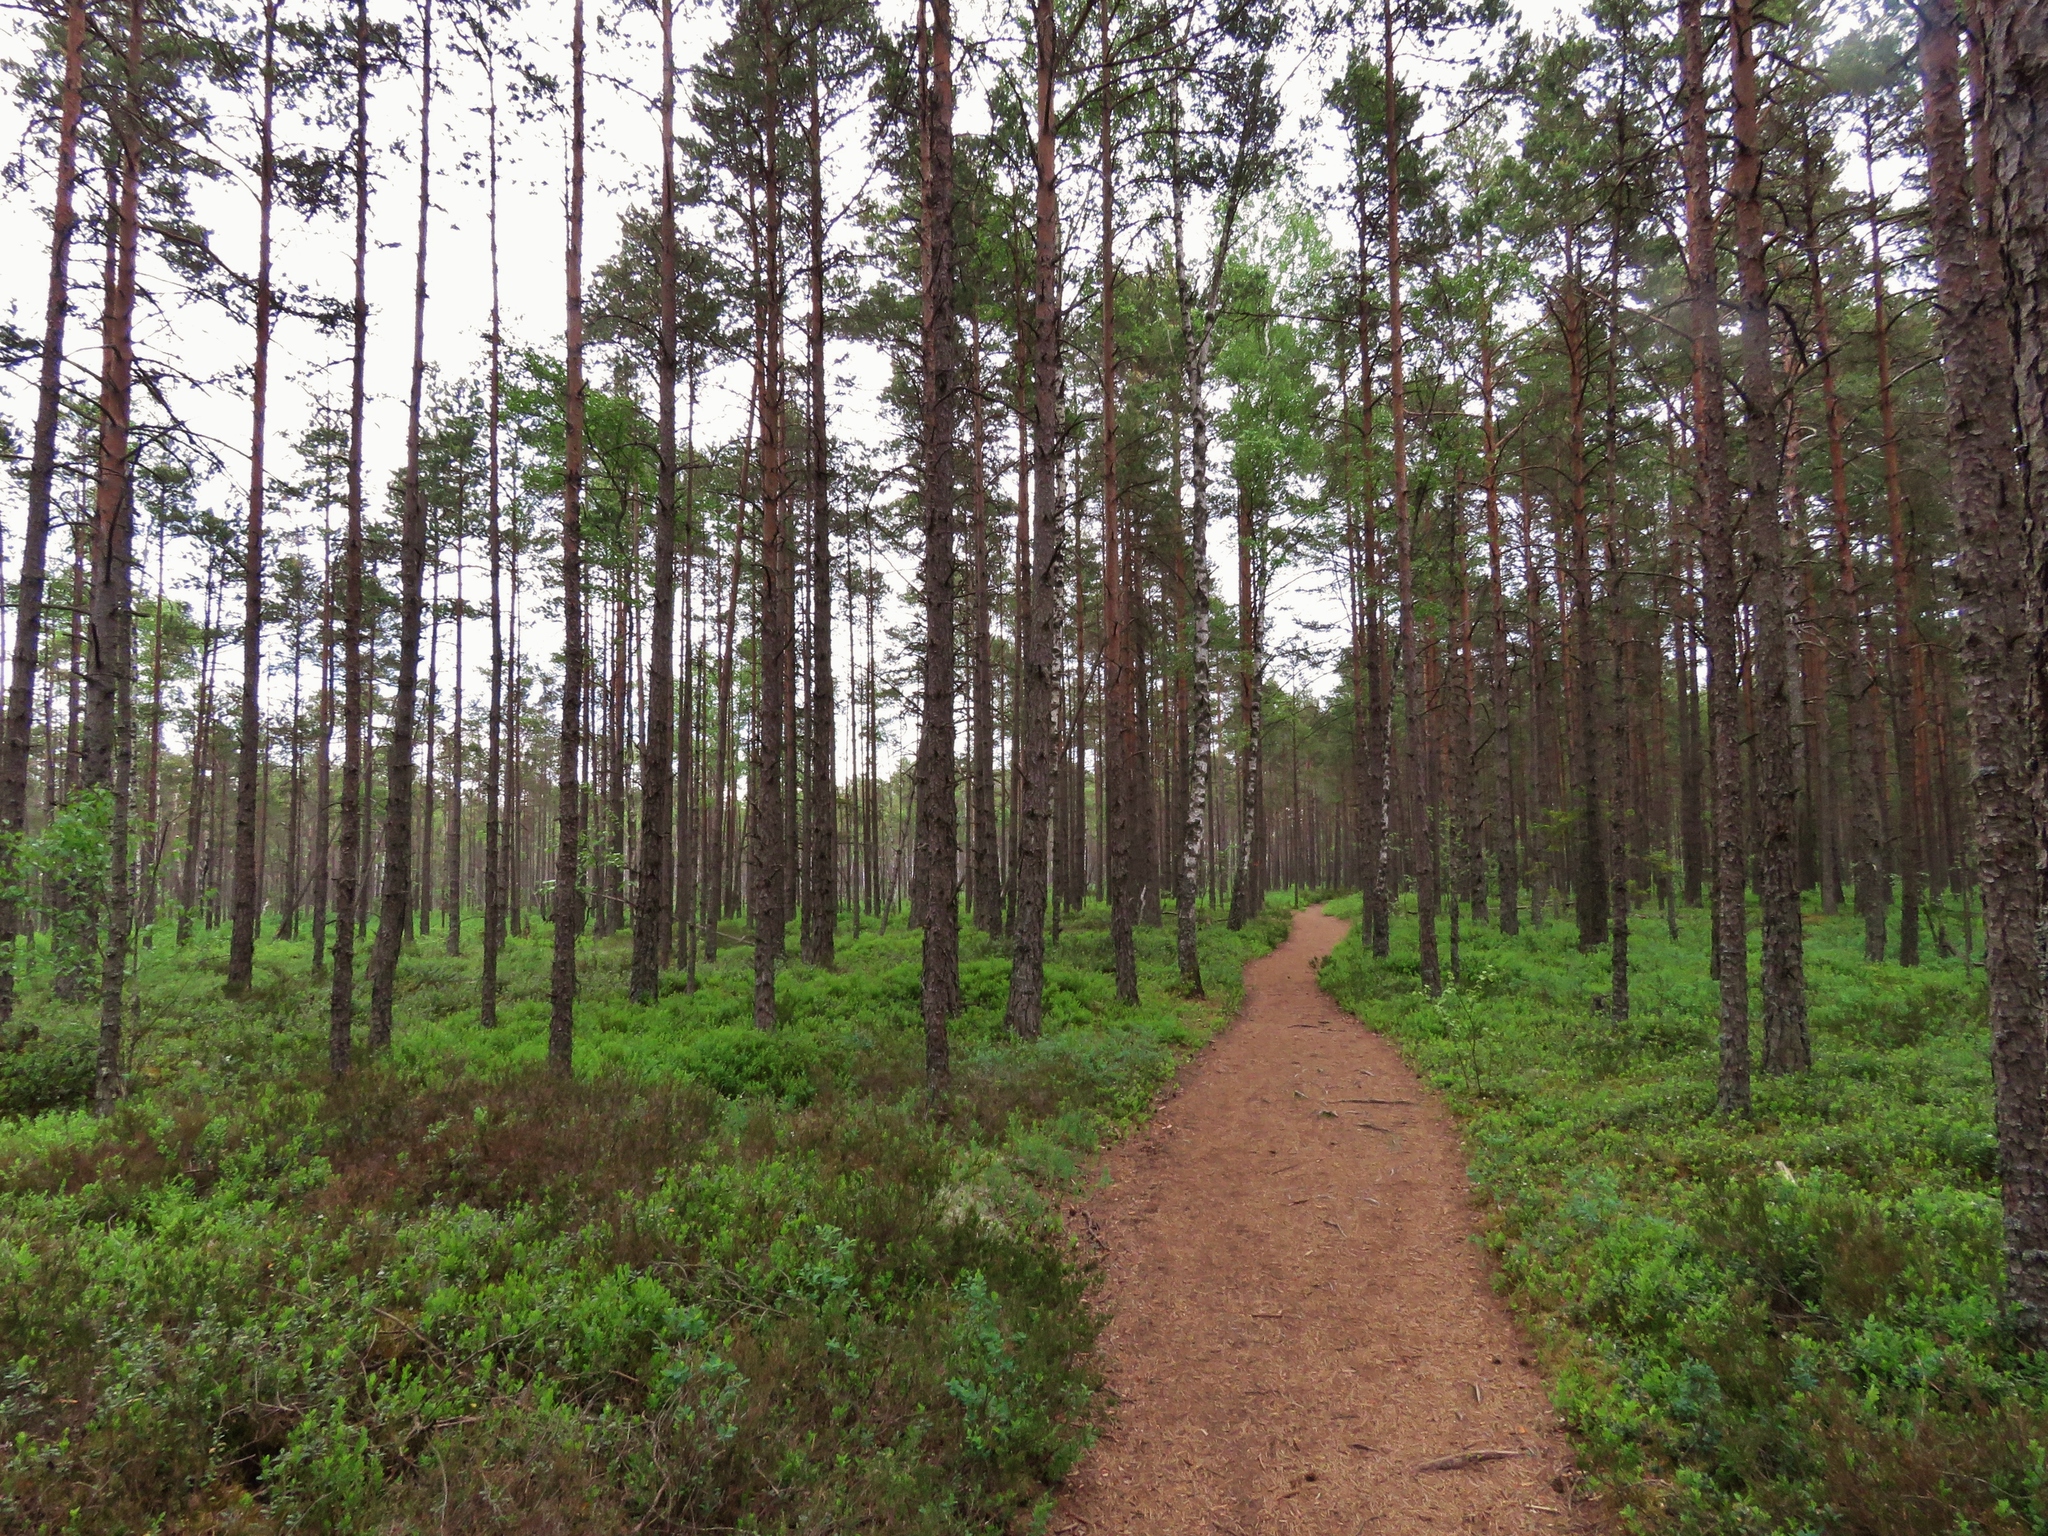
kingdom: Plantae
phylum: Tracheophyta
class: Pinopsida
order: Pinales
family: Pinaceae
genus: Pinus
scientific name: Pinus sylvestris
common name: Scots pine
